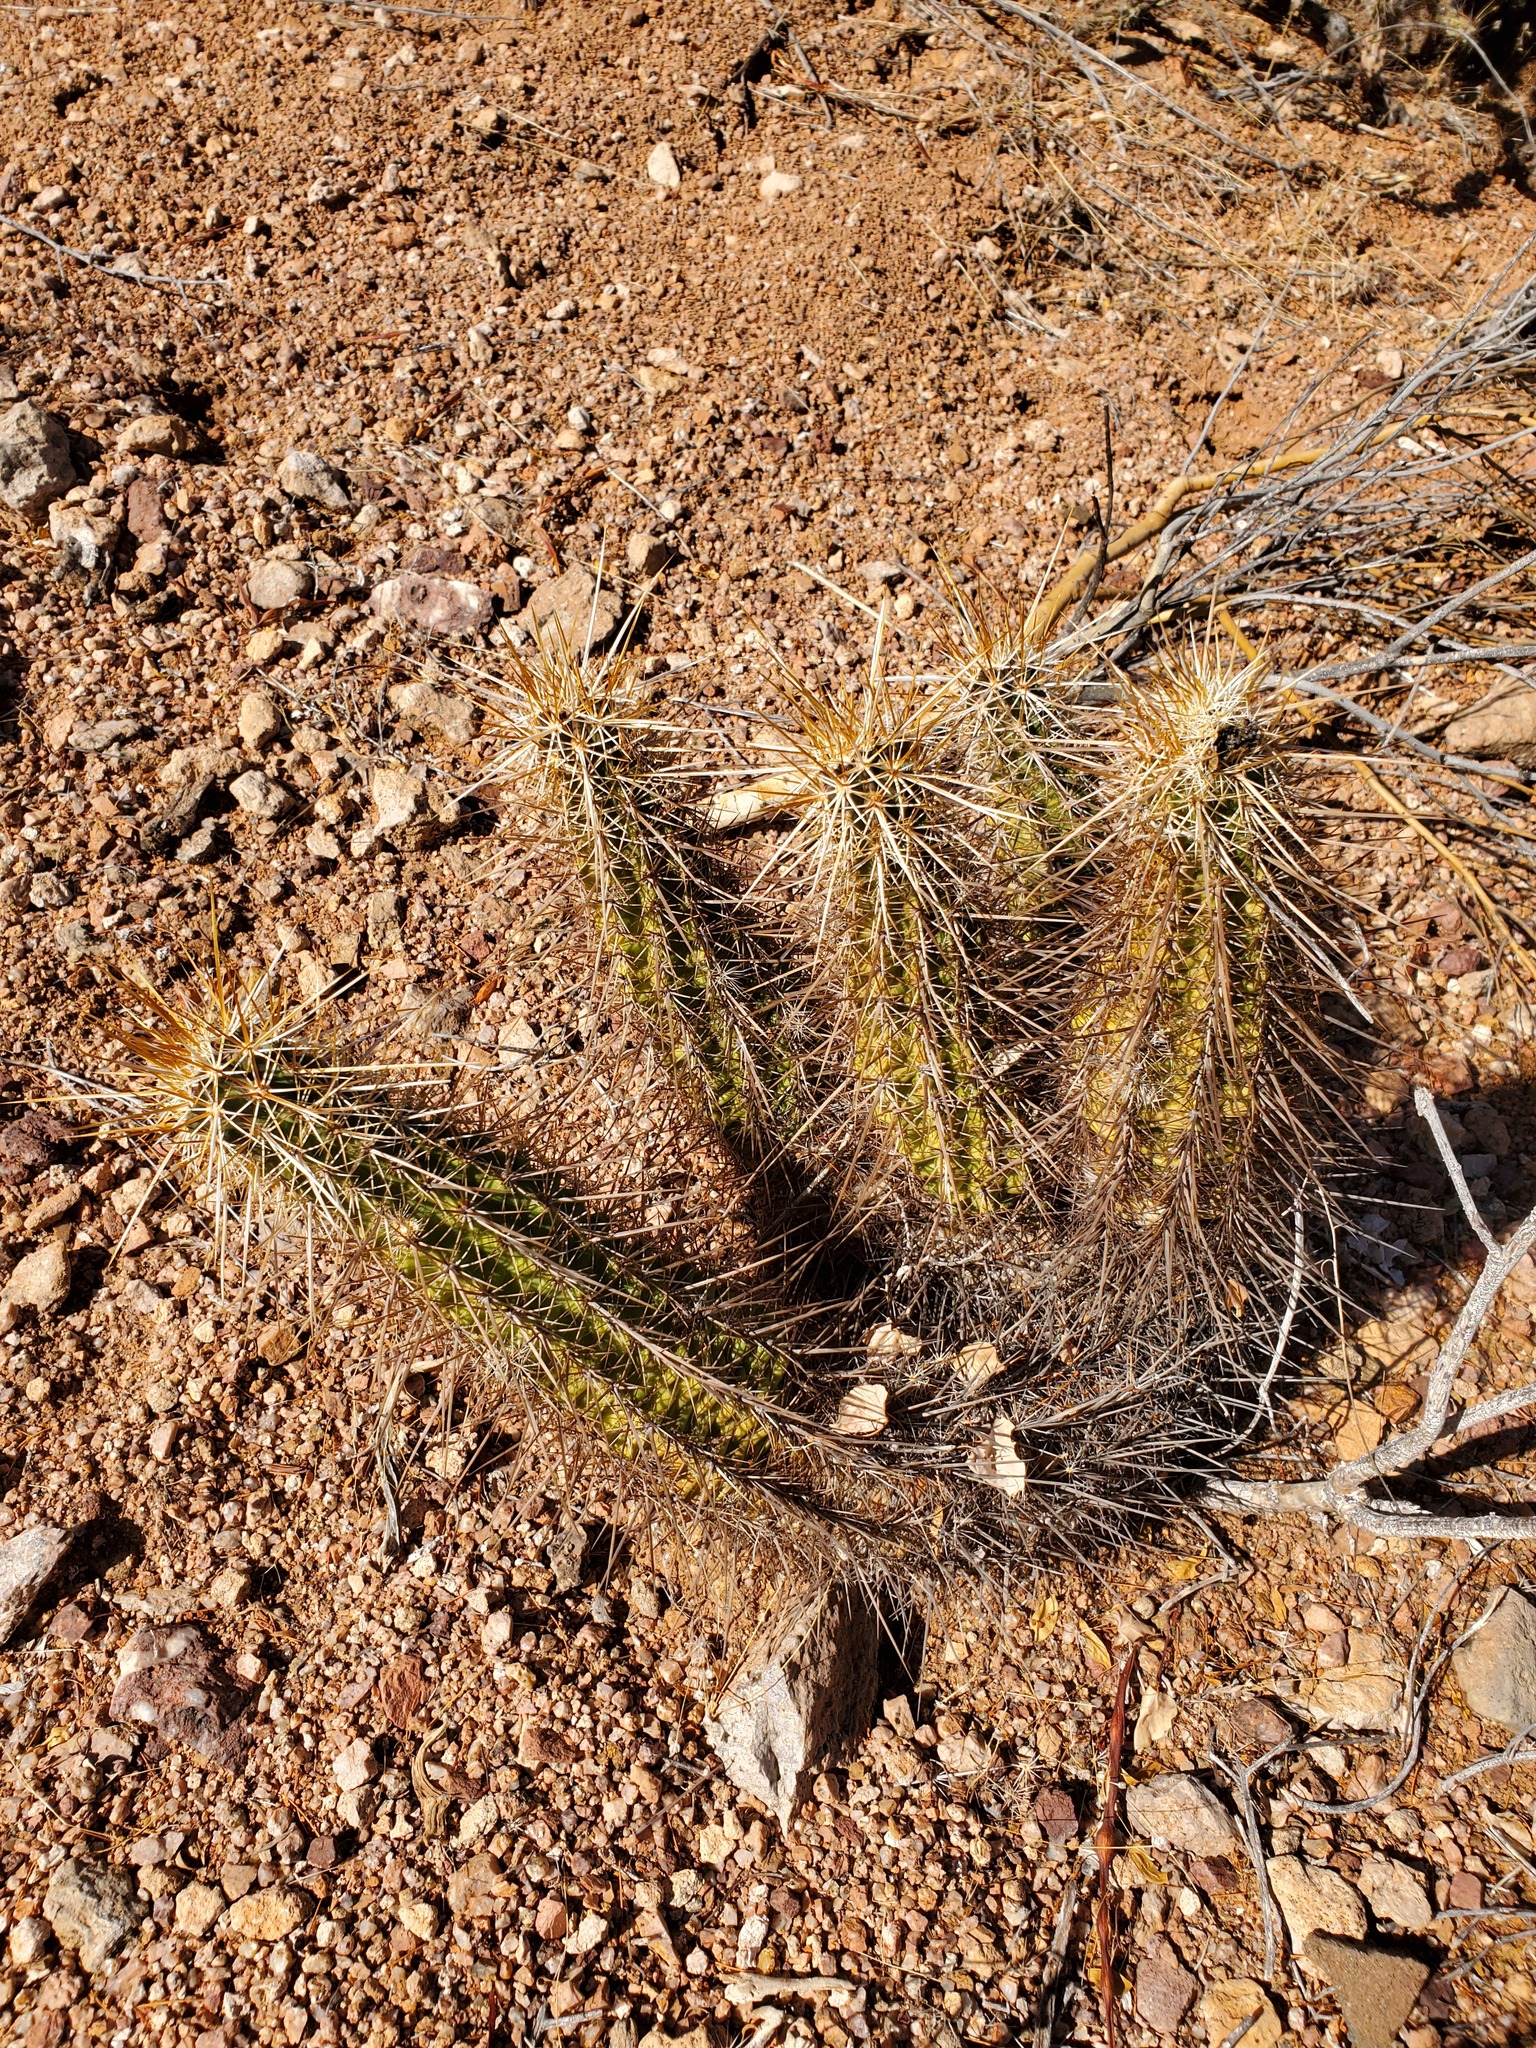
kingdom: Plantae
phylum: Tracheophyta
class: Magnoliopsida
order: Caryophyllales
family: Cactaceae
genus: Echinocereus
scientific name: Echinocereus engelmannii
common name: Engelmann's hedgehog cactus
